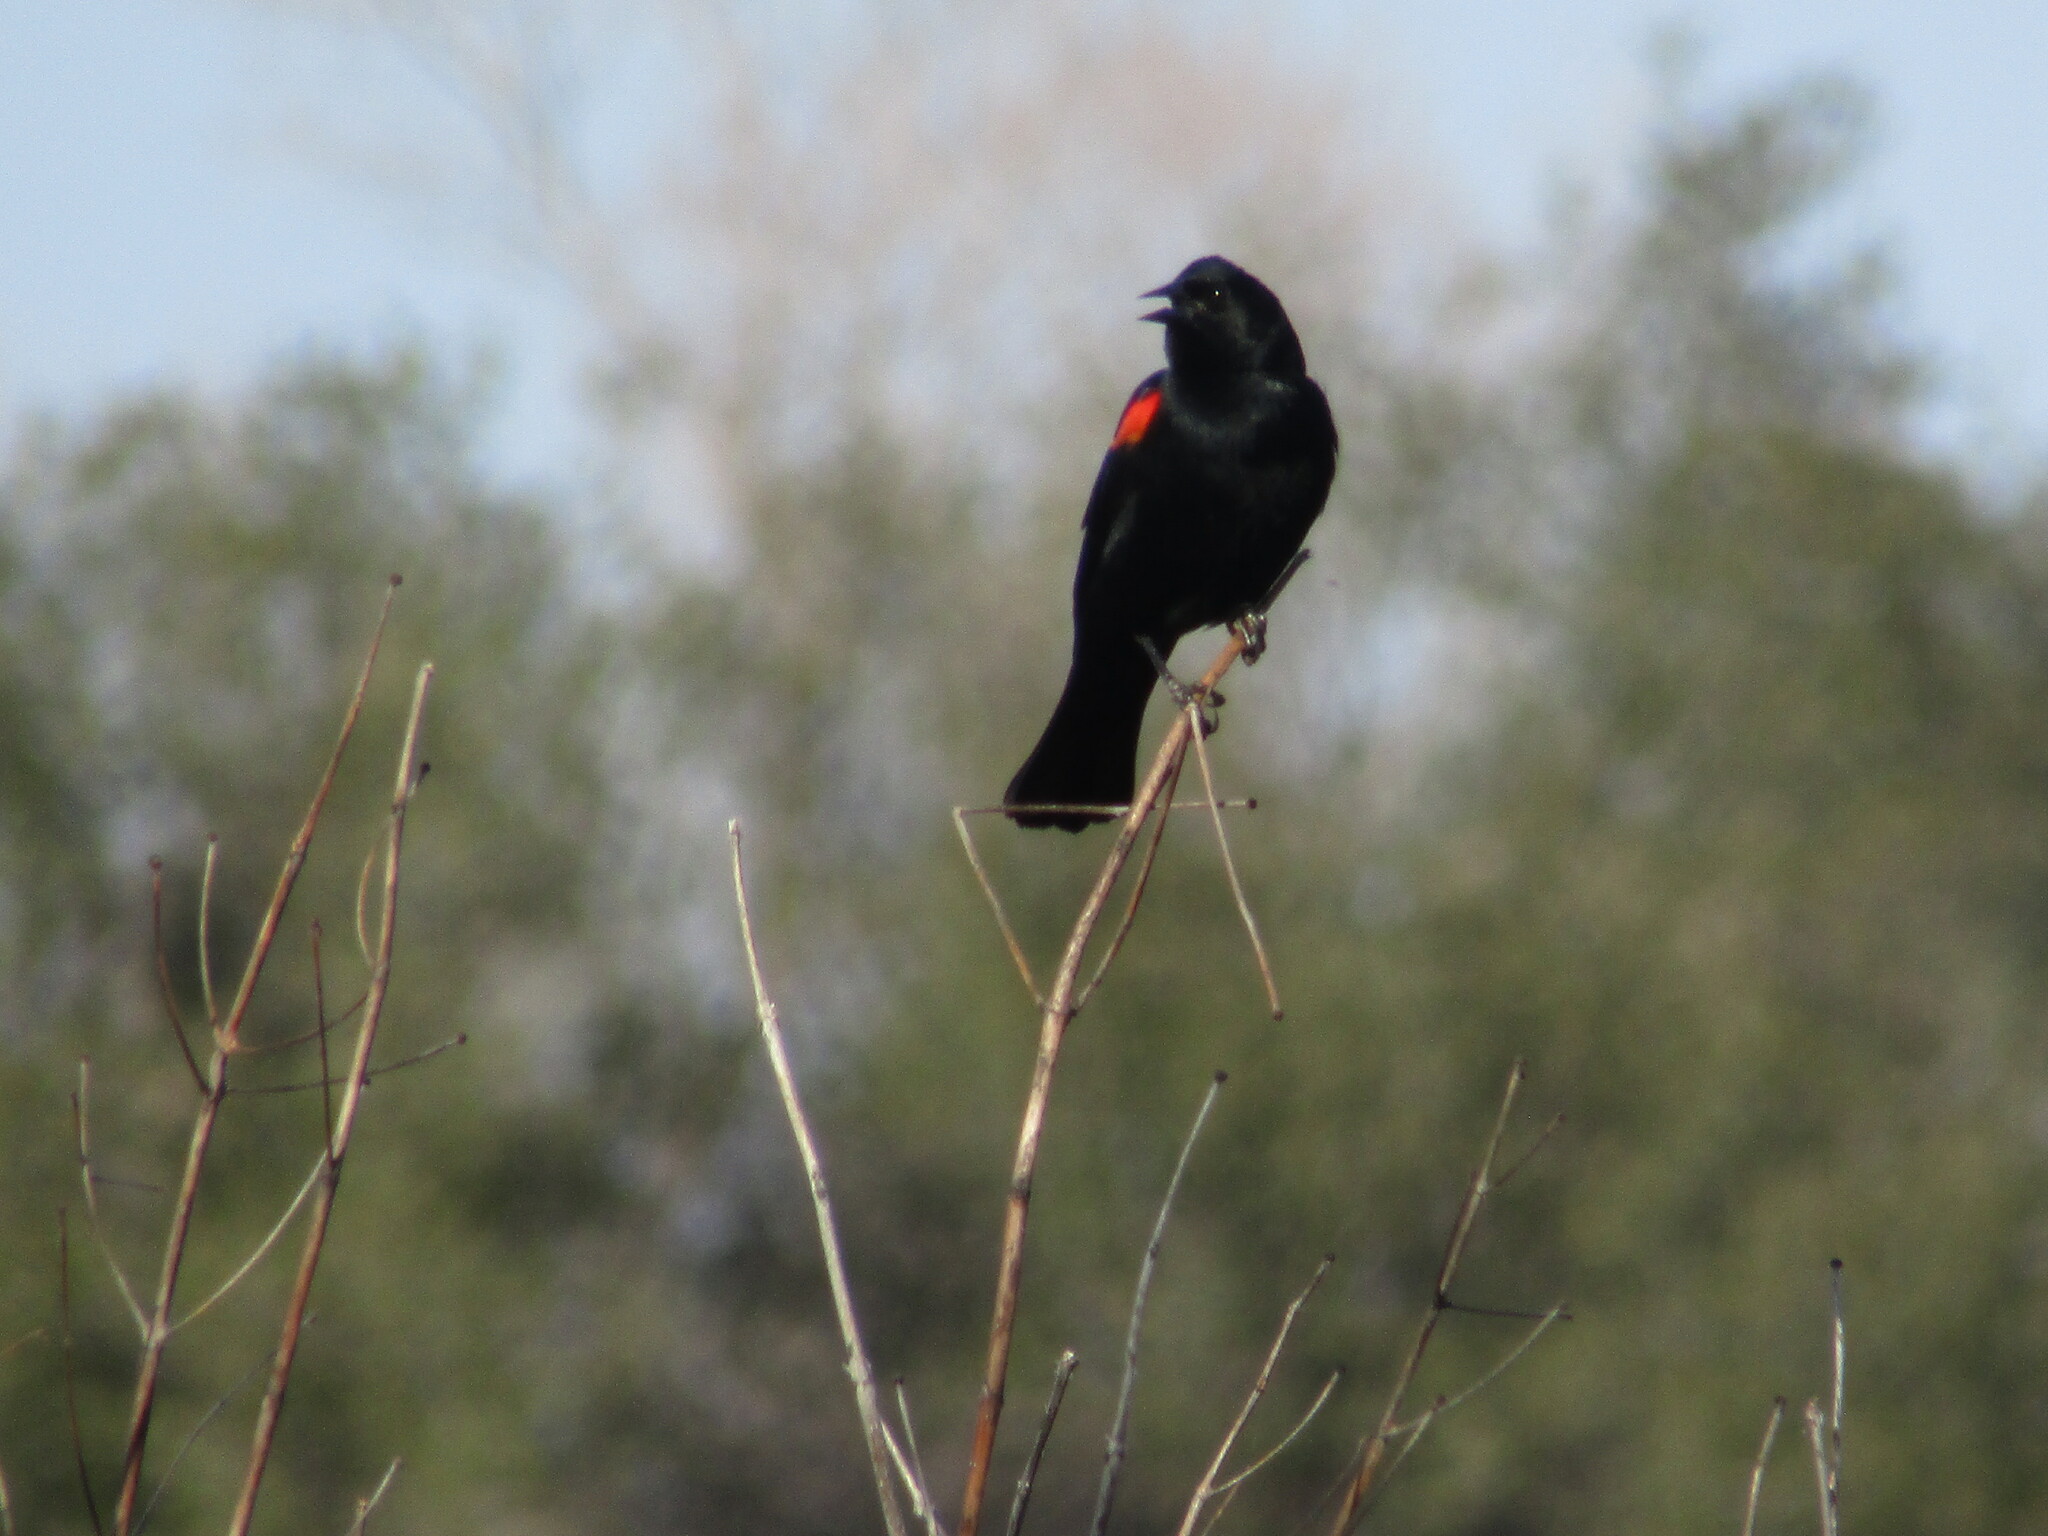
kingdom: Animalia
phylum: Chordata
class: Aves
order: Passeriformes
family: Icteridae
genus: Agelaius
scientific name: Agelaius phoeniceus
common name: Red-winged blackbird
